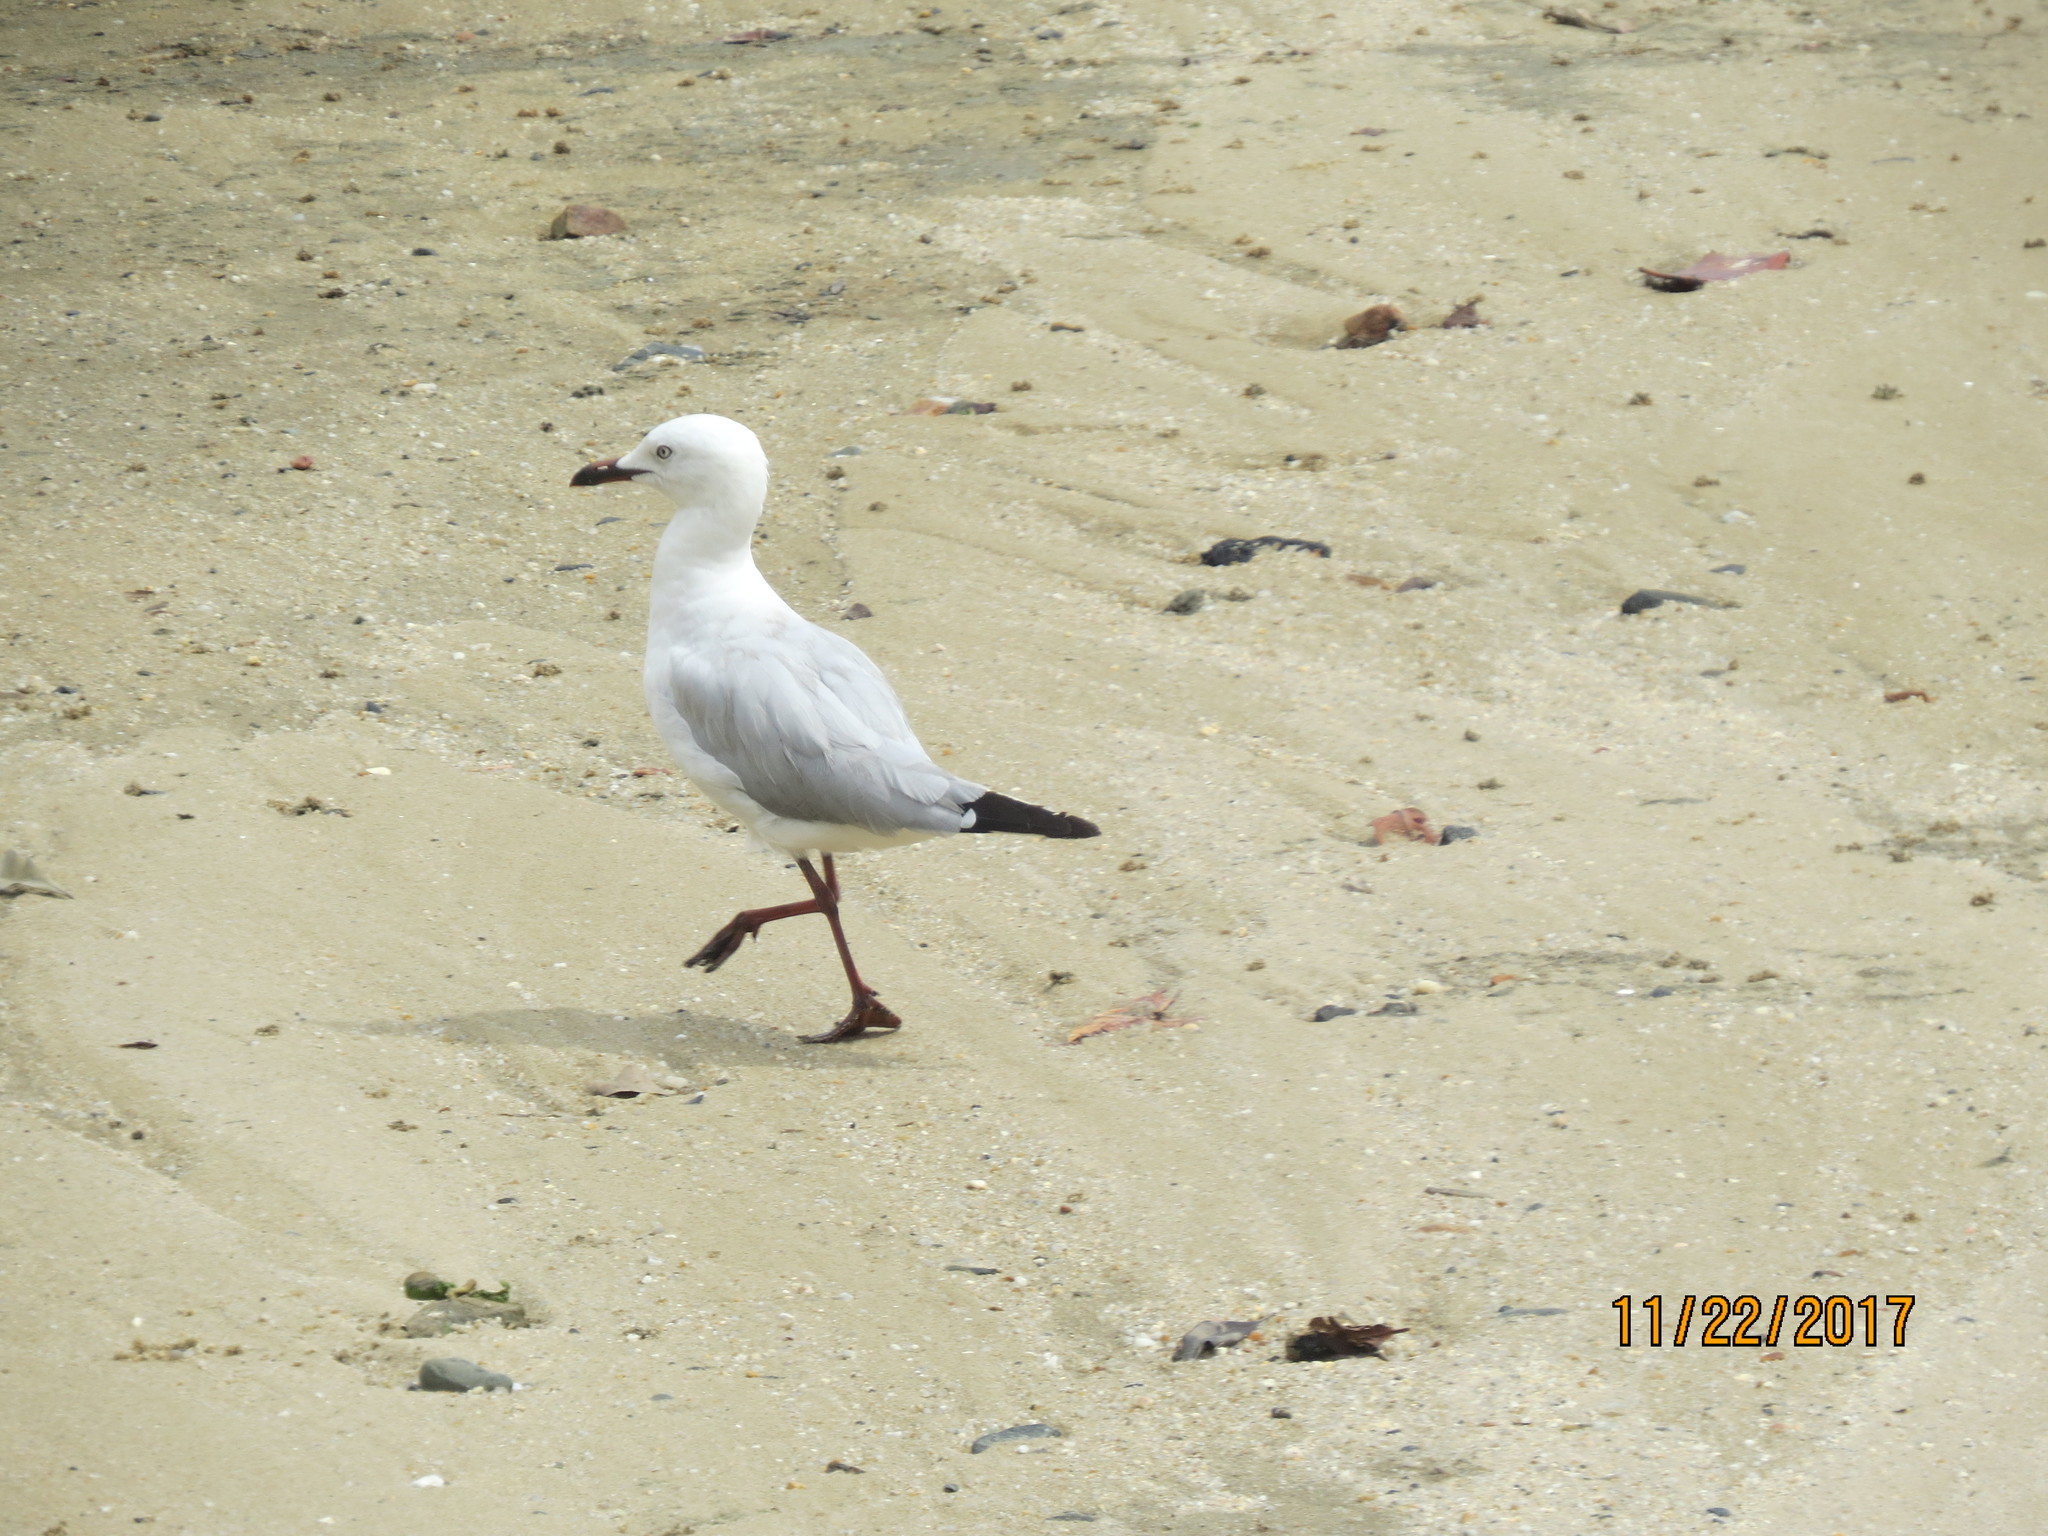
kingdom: Animalia
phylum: Chordata
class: Aves
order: Charadriiformes
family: Laridae
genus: Chroicocephalus
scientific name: Chroicocephalus novaehollandiae
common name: Silver gull
